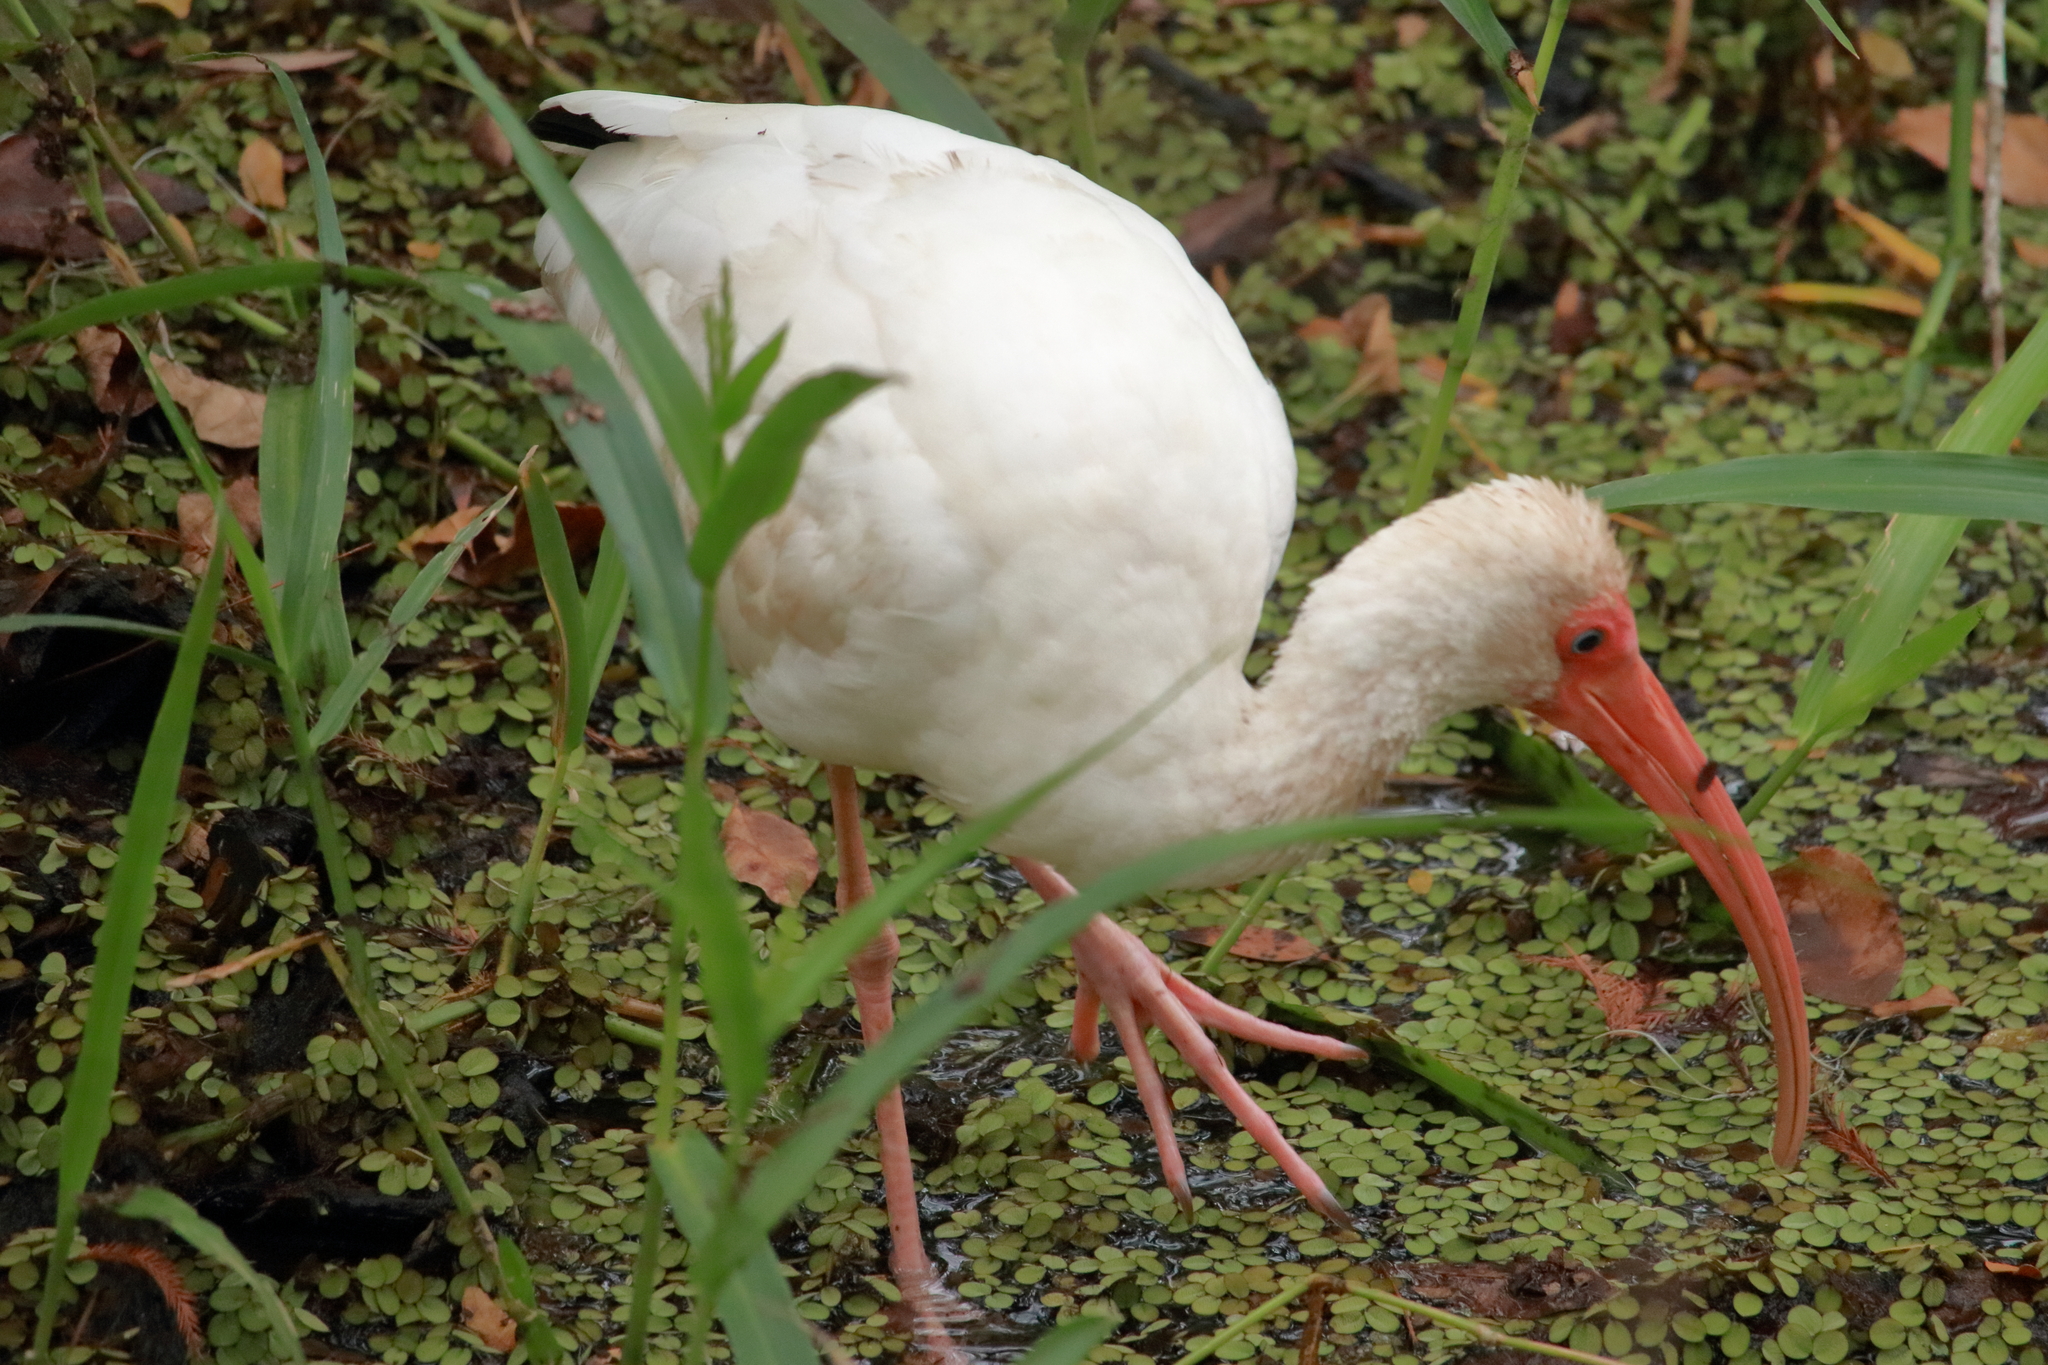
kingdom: Animalia
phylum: Chordata
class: Aves
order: Pelecaniformes
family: Threskiornithidae
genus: Eudocimus
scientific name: Eudocimus albus
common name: White ibis
